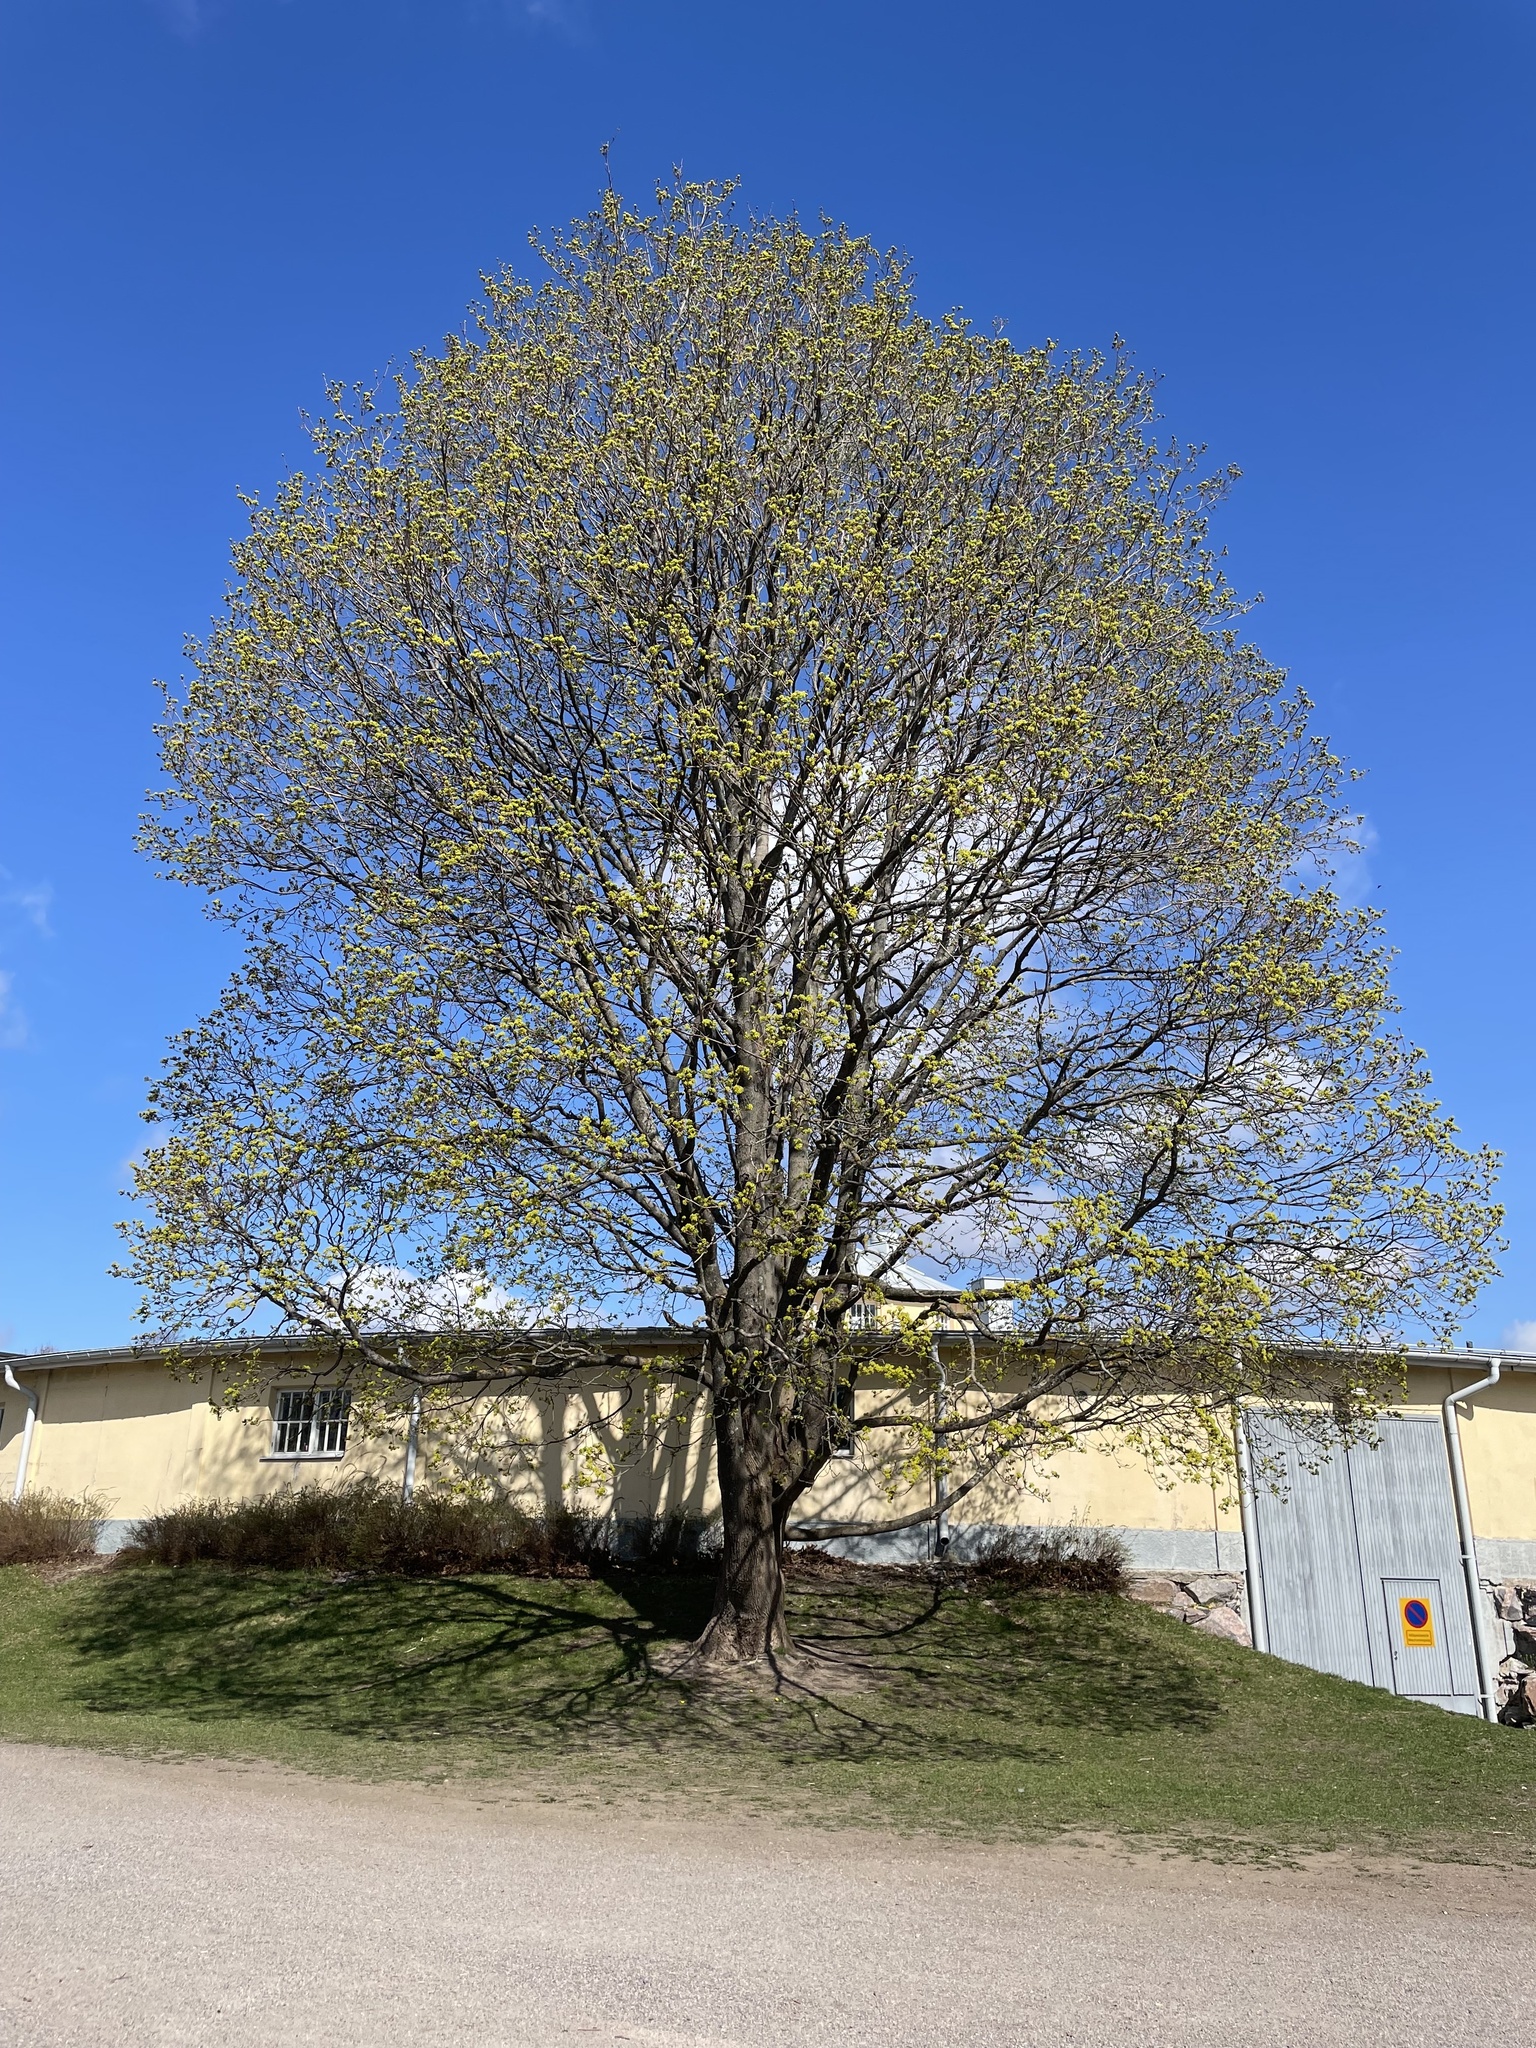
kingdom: Plantae
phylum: Tracheophyta
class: Magnoliopsida
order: Sapindales
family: Sapindaceae
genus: Acer
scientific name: Acer platanoides
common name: Norway maple
